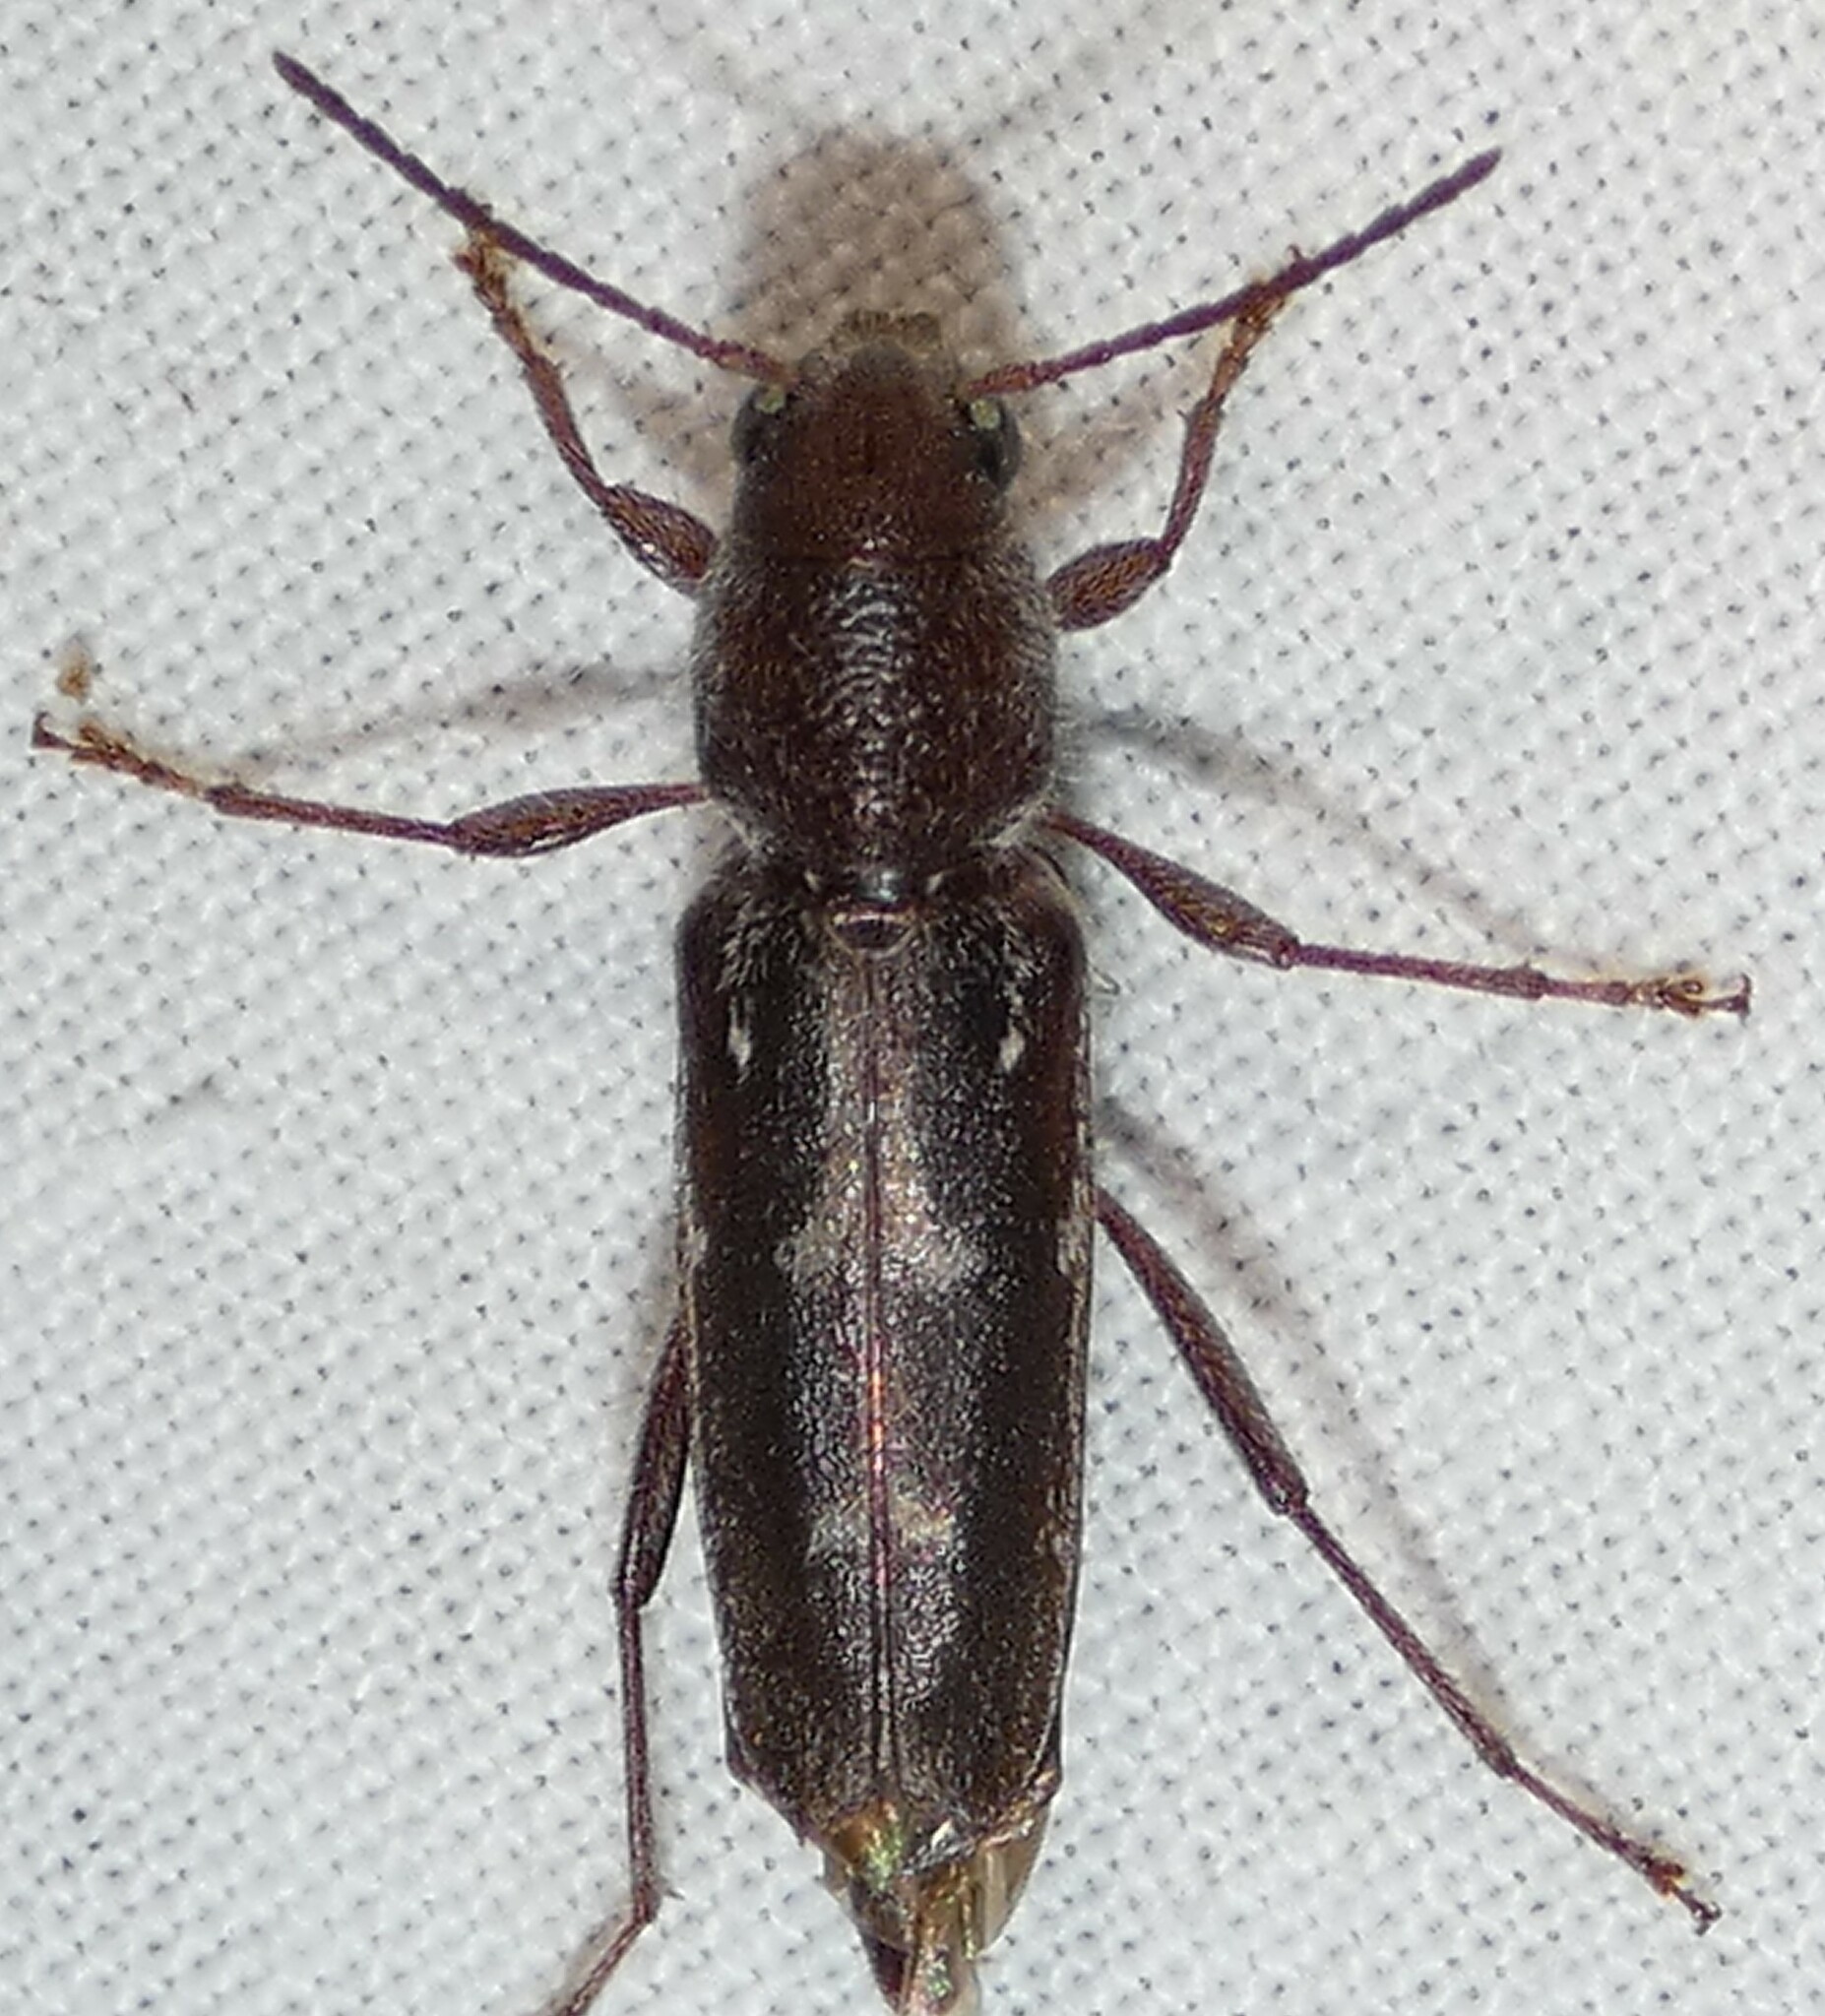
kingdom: Animalia
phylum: Arthropoda
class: Insecta
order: Coleoptera
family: Cerambycidae
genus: Xylotrechus
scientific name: Xylotrechus sagittatus
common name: Arrowhead borer
